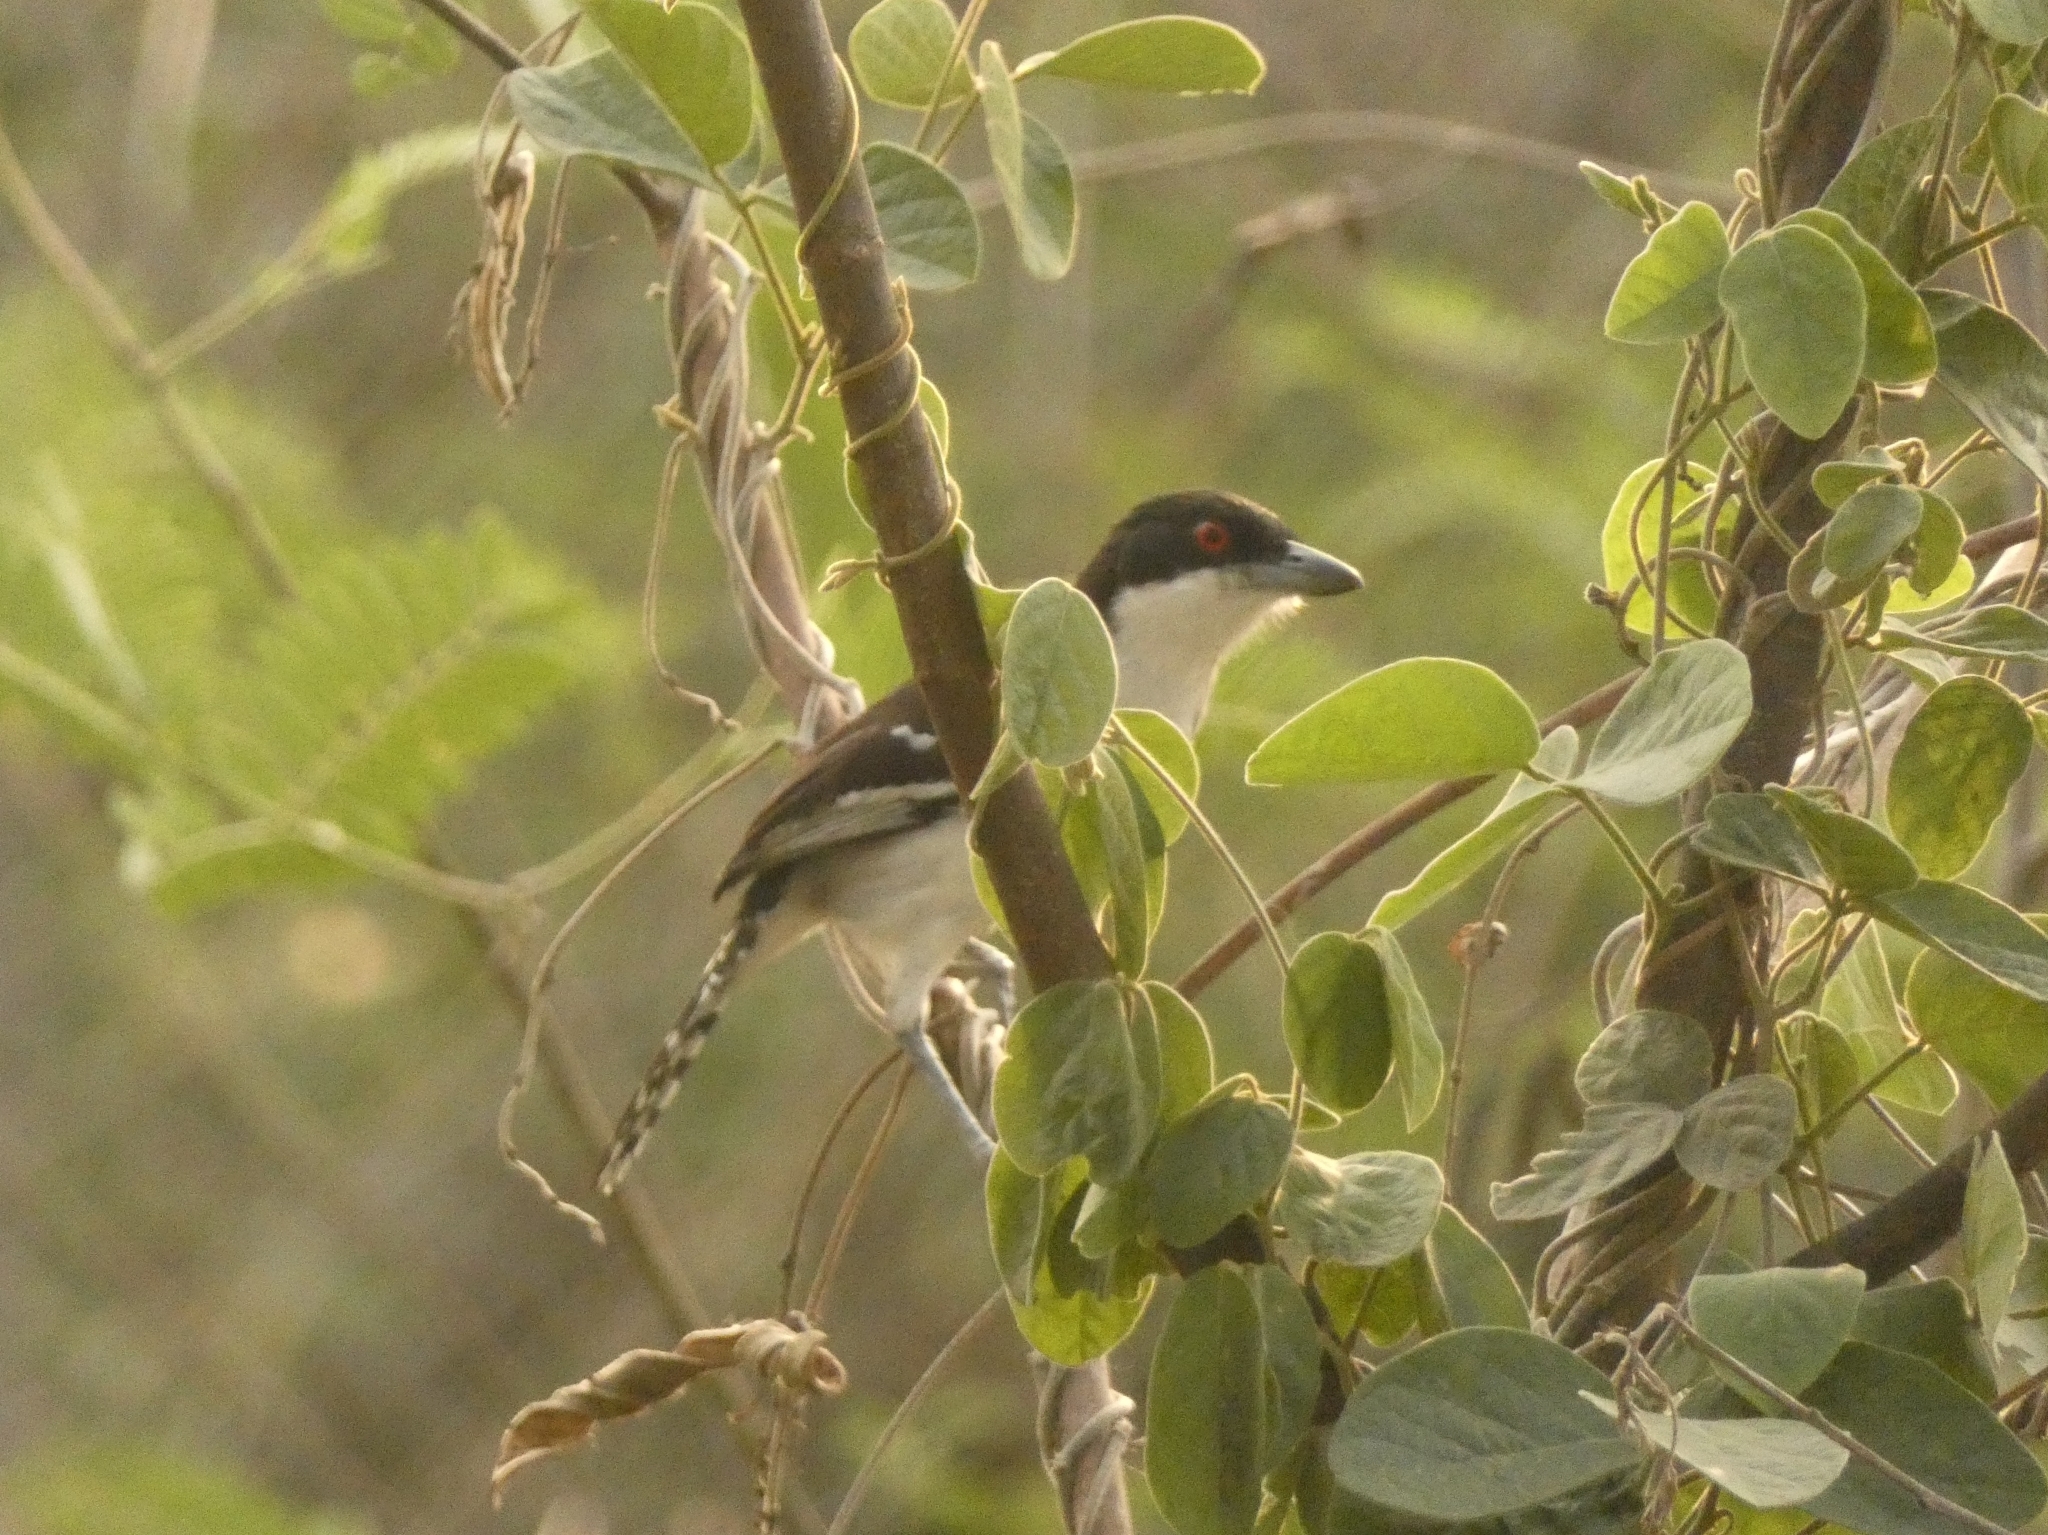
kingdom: Animalia
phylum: Chordata
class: Aves
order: Passeriformes
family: Thamnophilidae
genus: Taraba
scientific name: Taraba major
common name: Great antshrike
